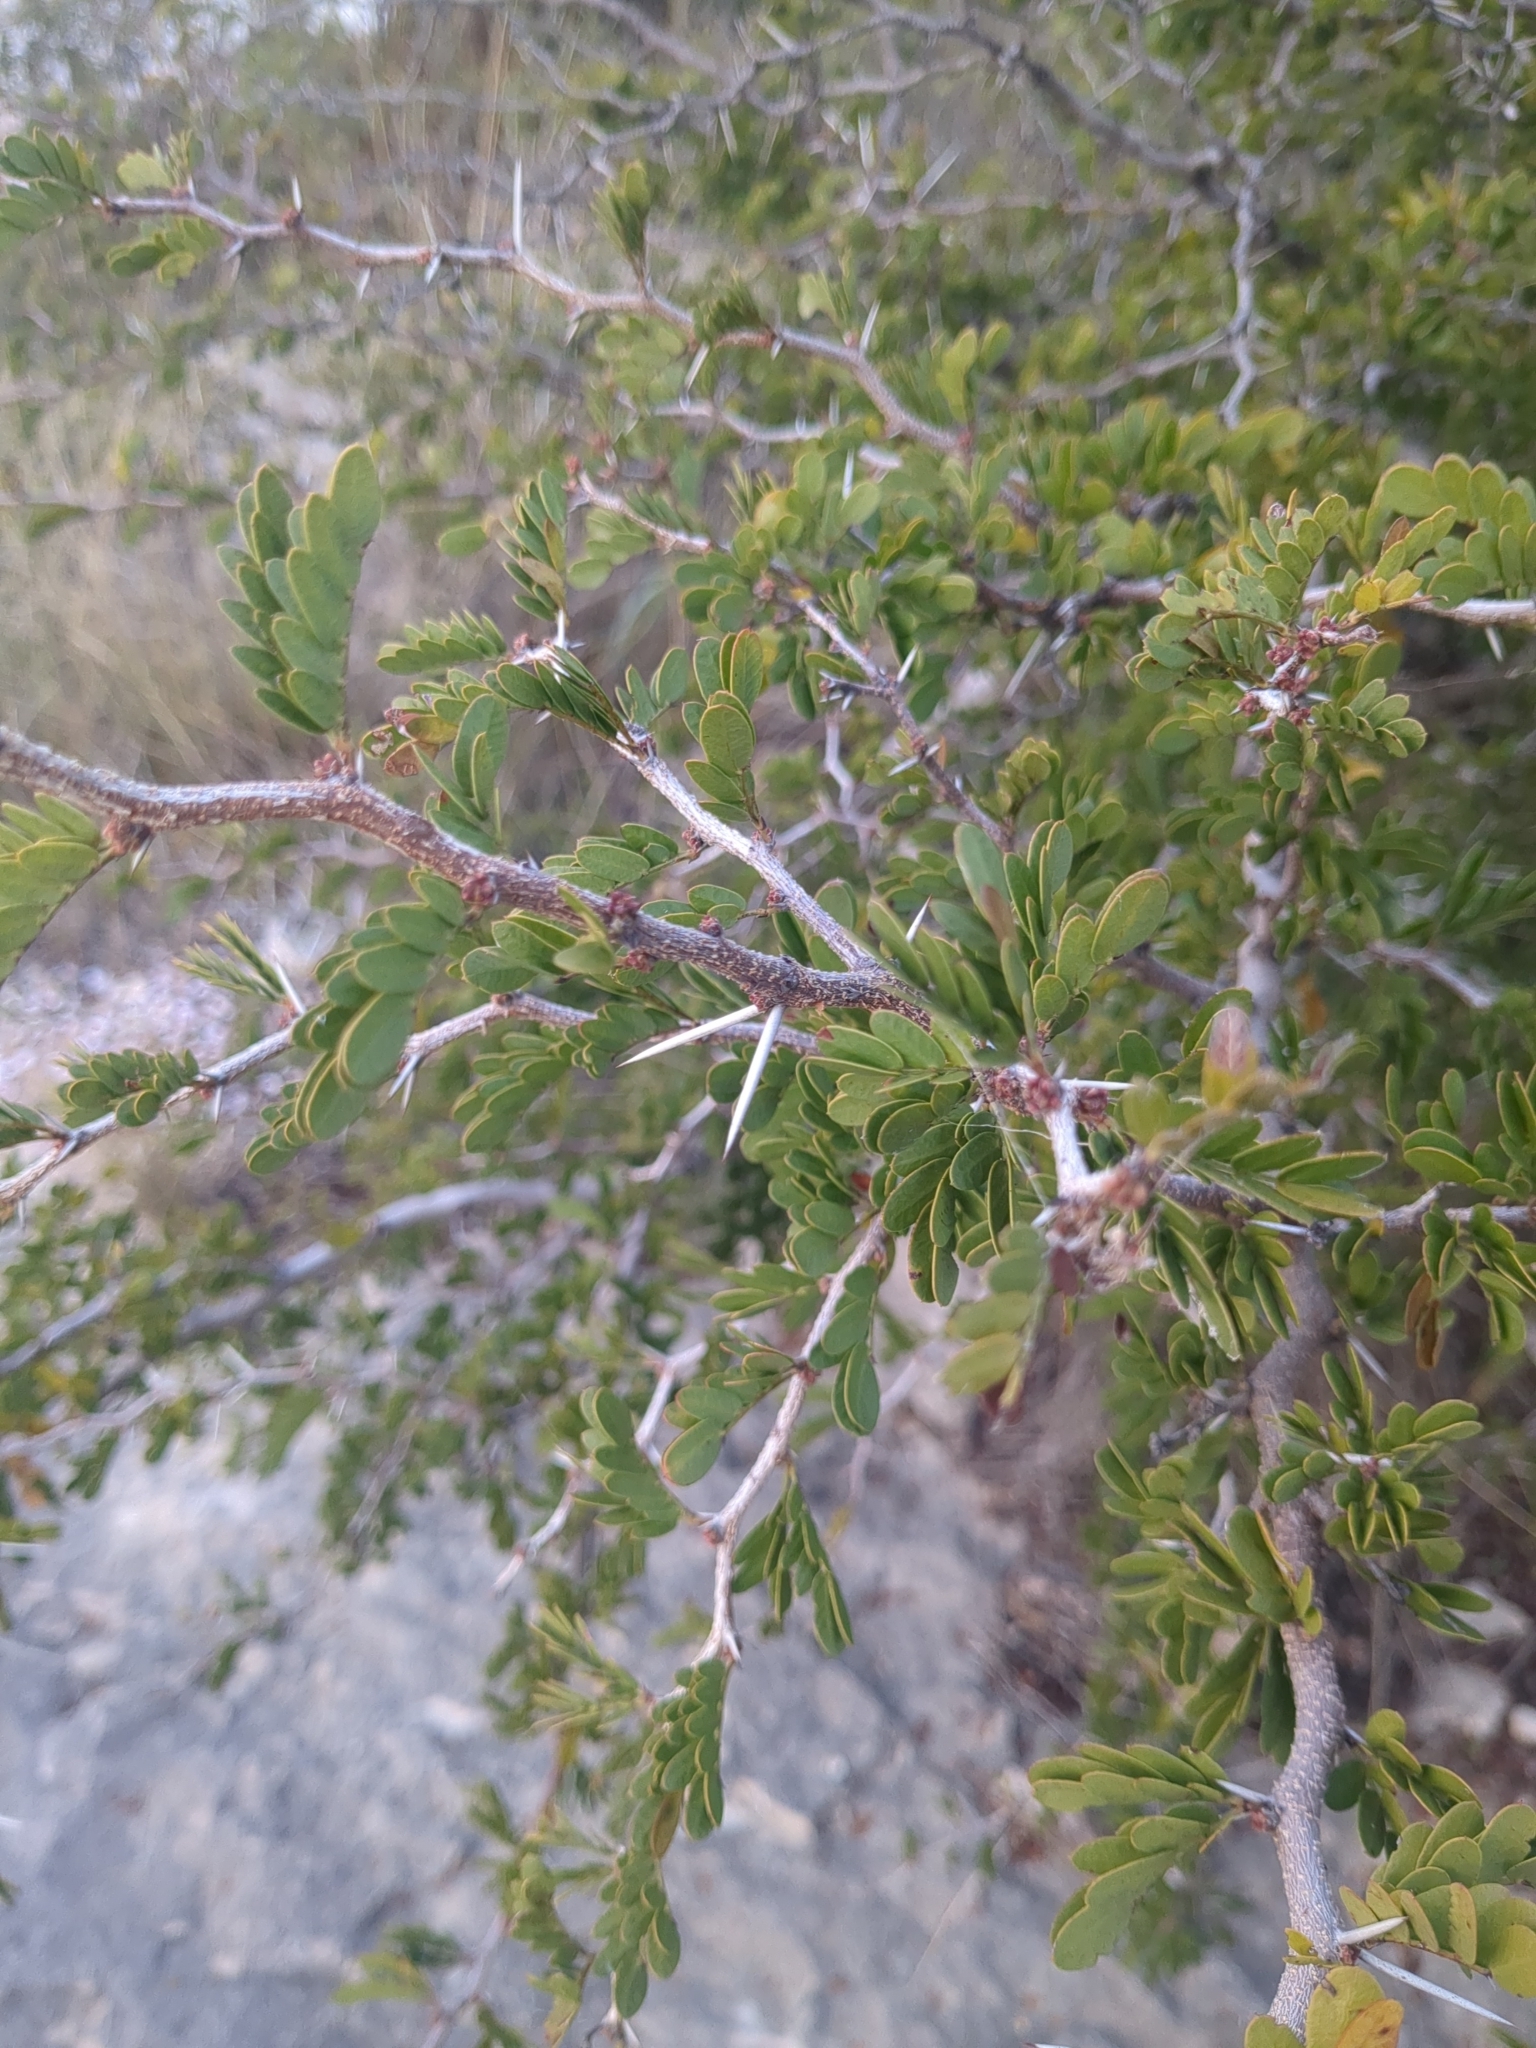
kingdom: Plantae
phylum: Tracheophyta
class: Magnoliopsida
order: Fabales
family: Fabaceae
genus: Vachellia
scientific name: Vachellia rigidula
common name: Blackbrush
